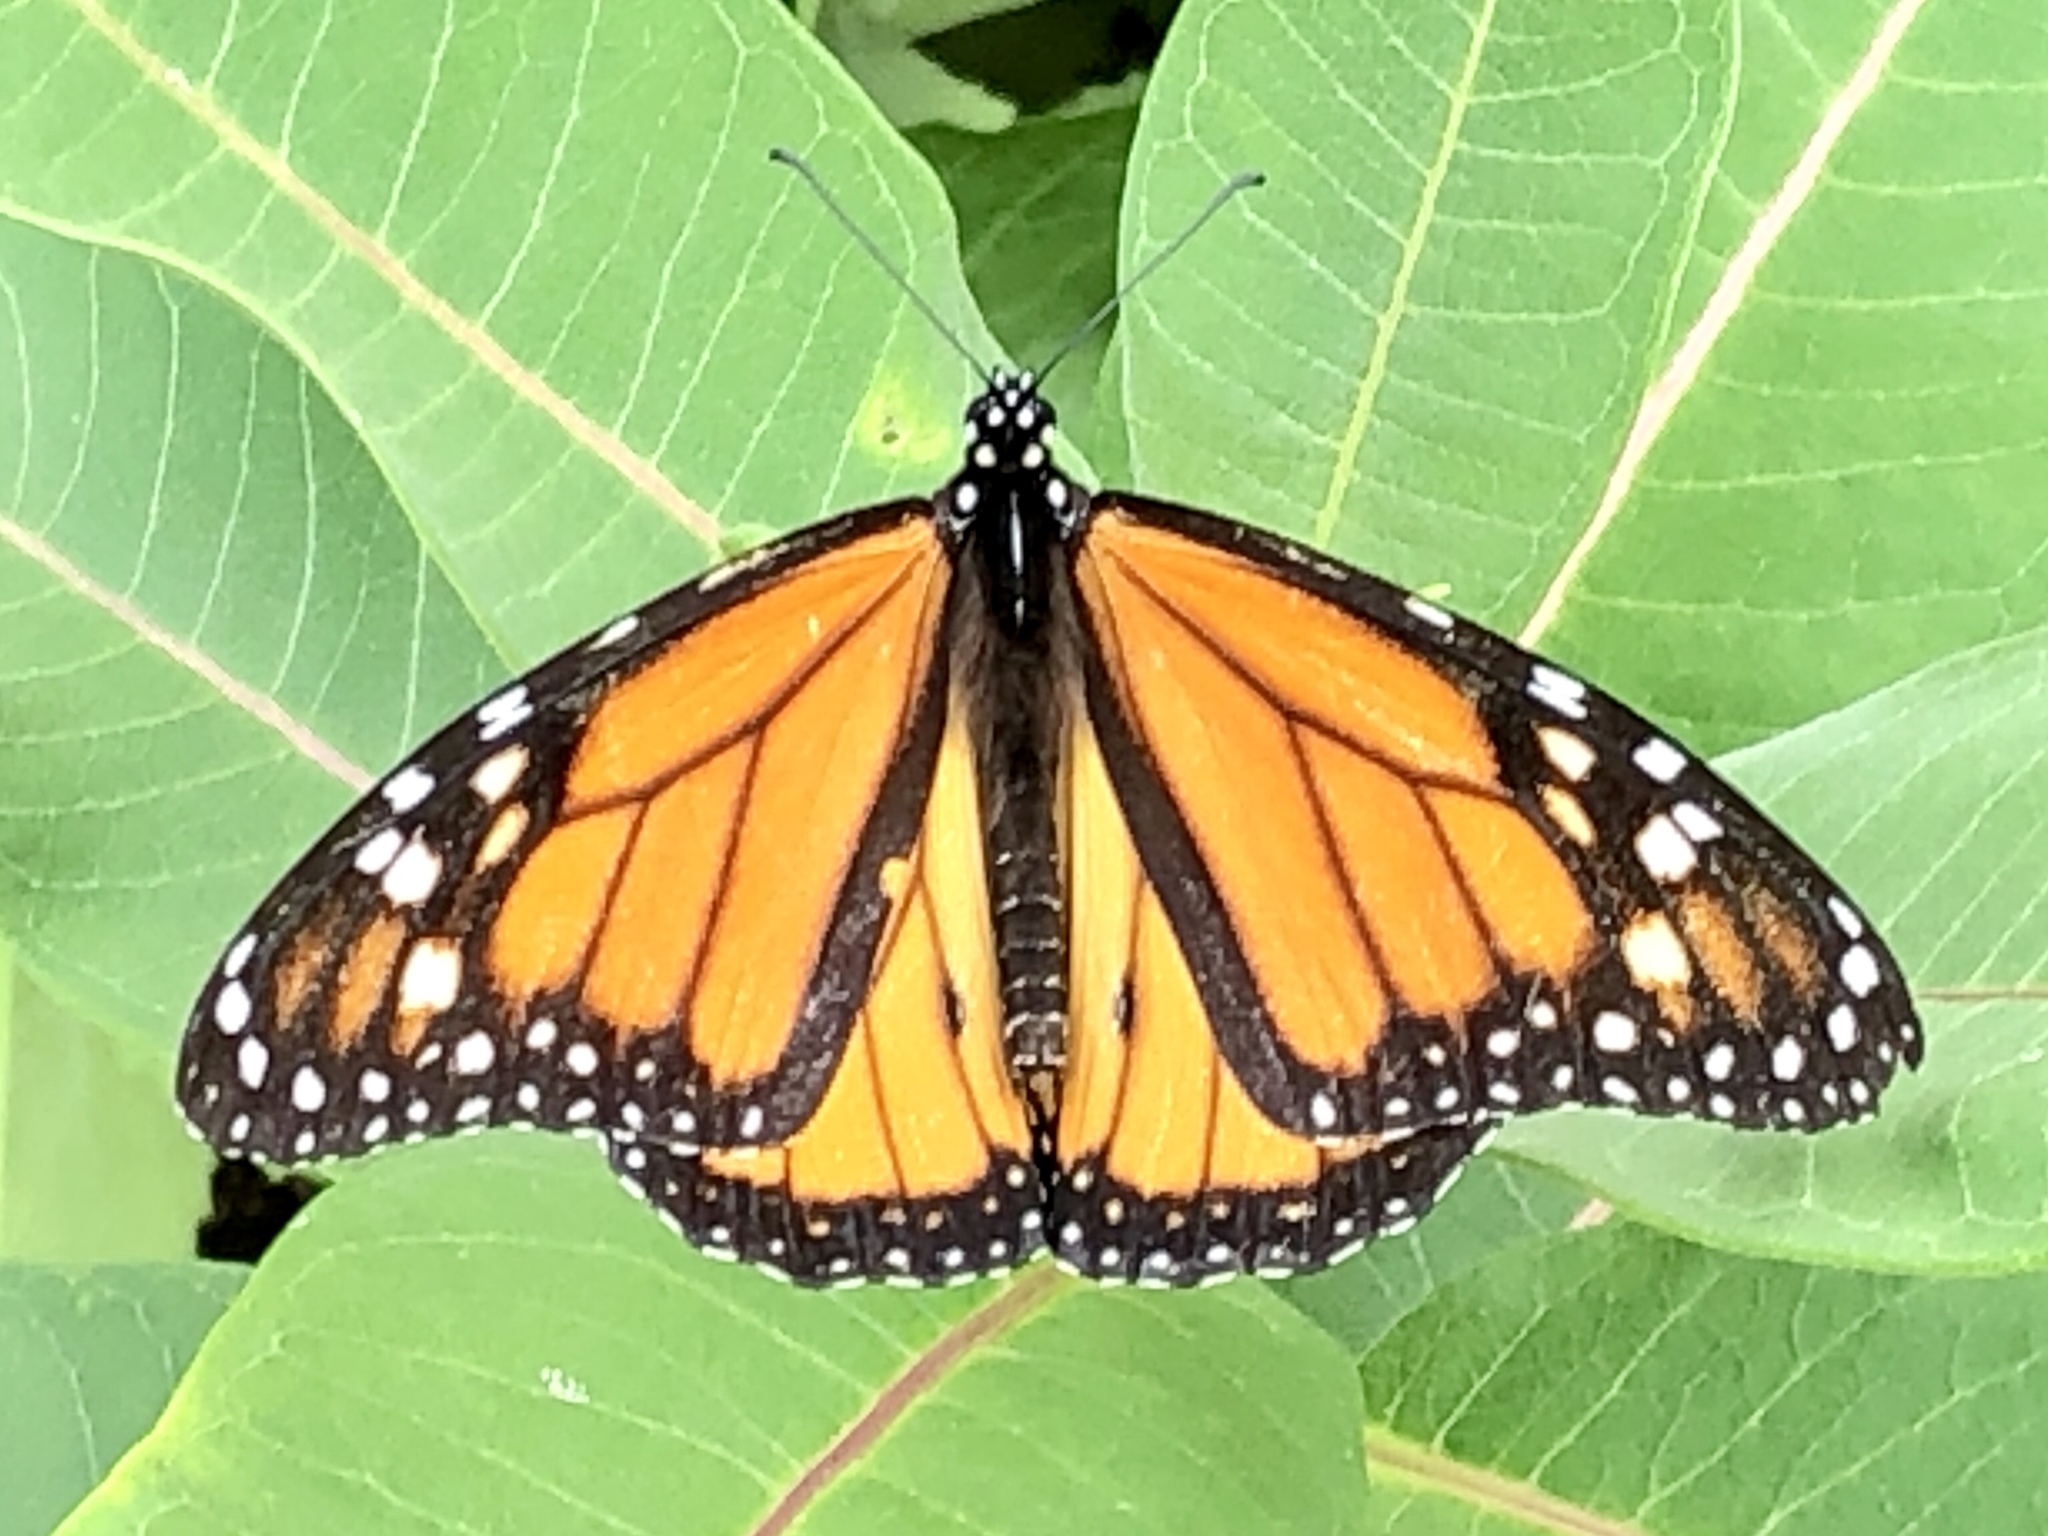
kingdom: Animalia
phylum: Arthropoda
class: Insecta
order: Lepidoptera
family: Nymphalidae
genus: Danaus
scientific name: Danaus plexippus
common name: Monarch
